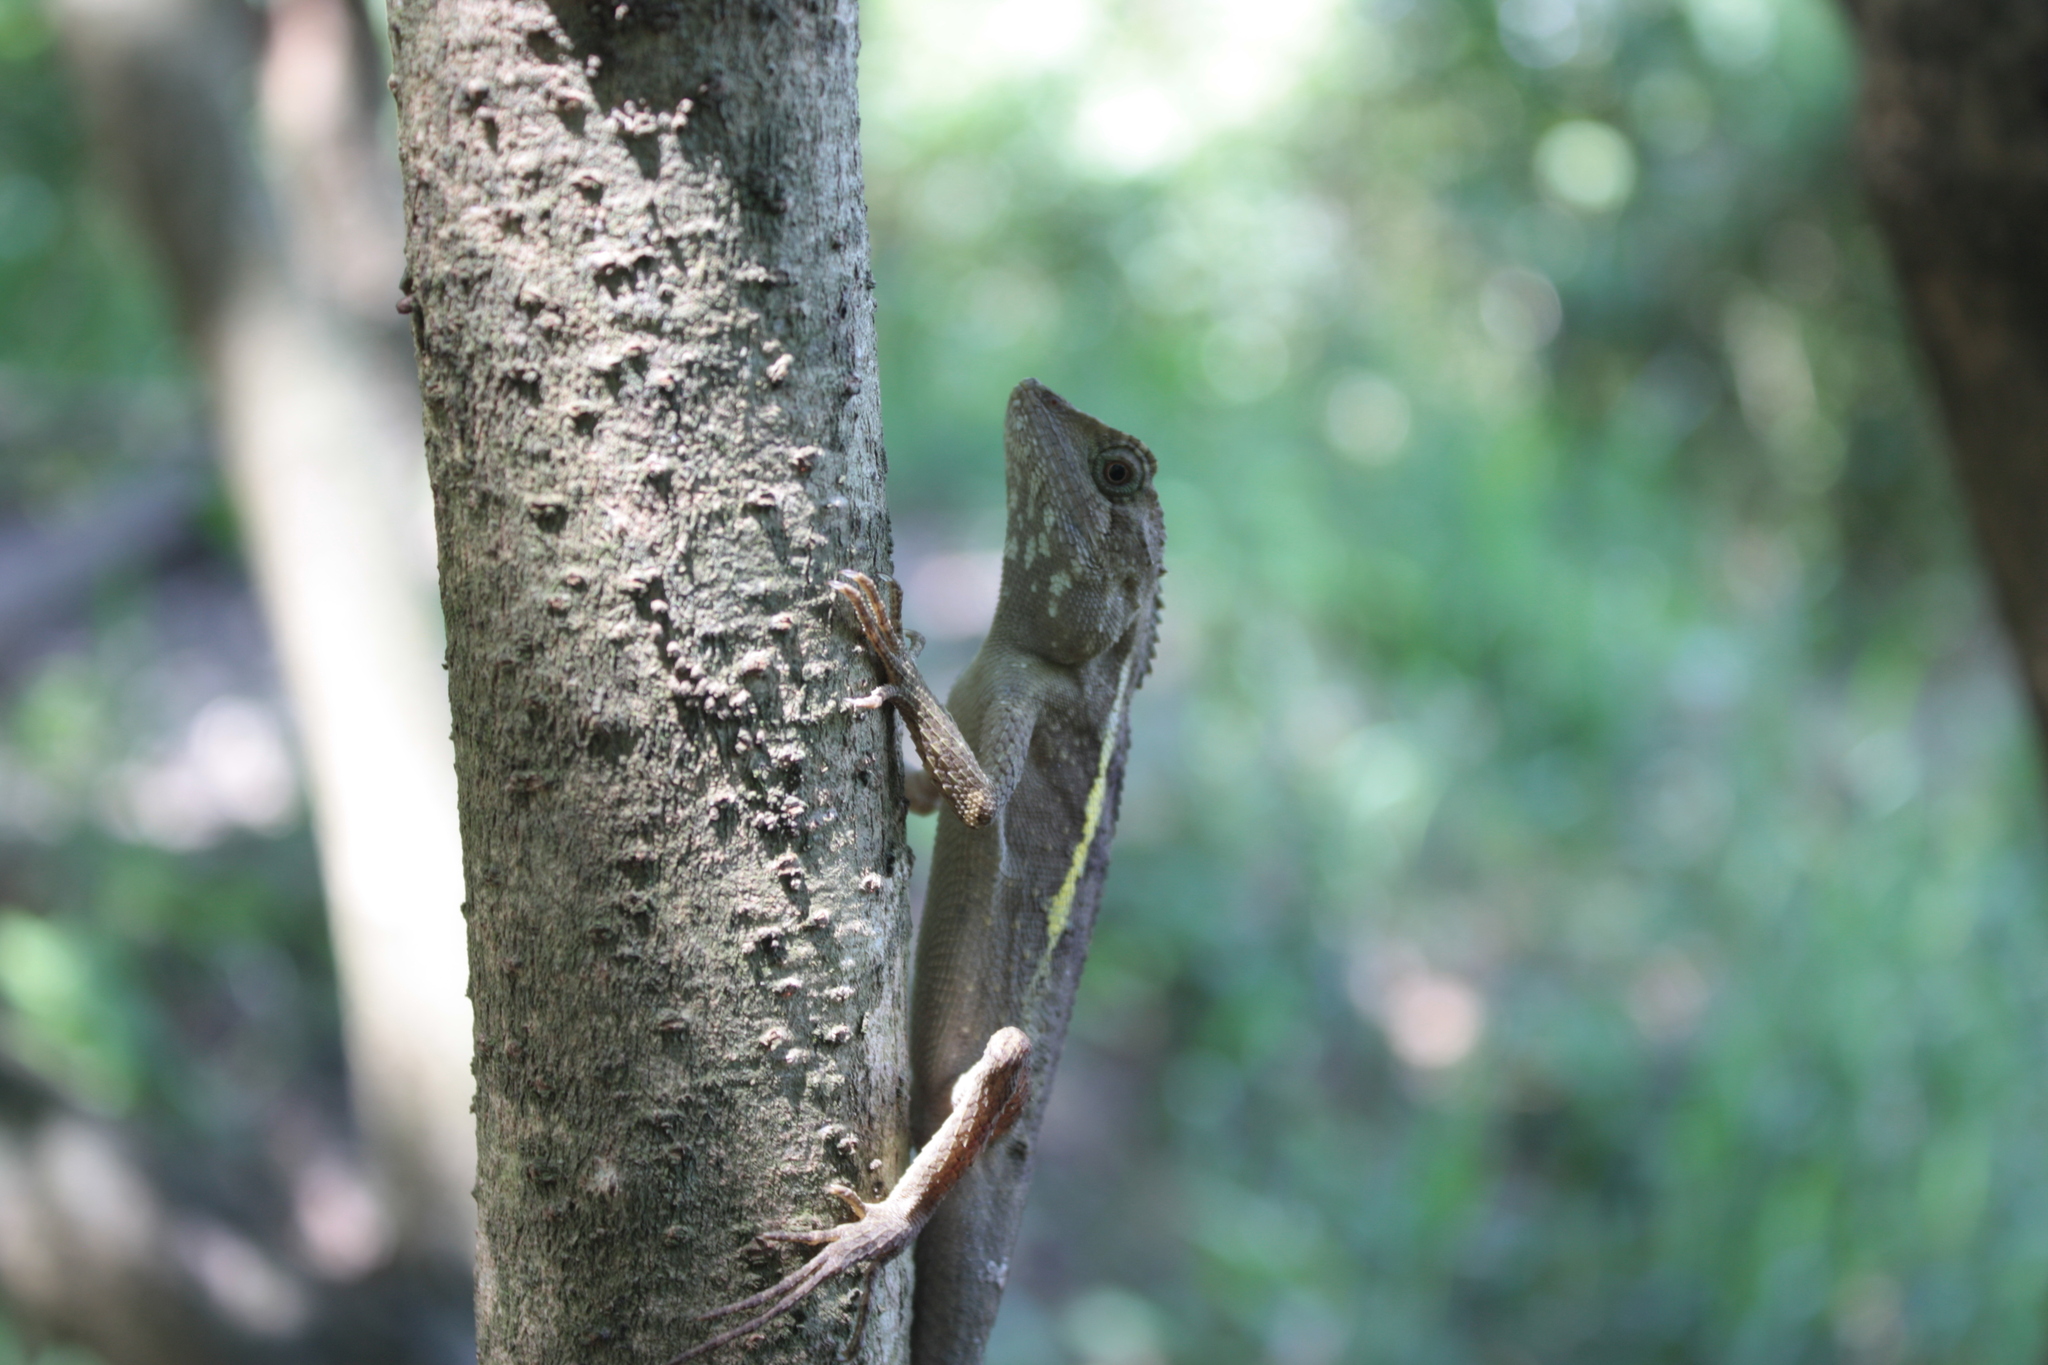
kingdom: Animalia
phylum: Chordata
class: Squamata
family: Agamidae
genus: Diploderma
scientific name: Diploderma swinhonis
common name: Taiwan japalure
